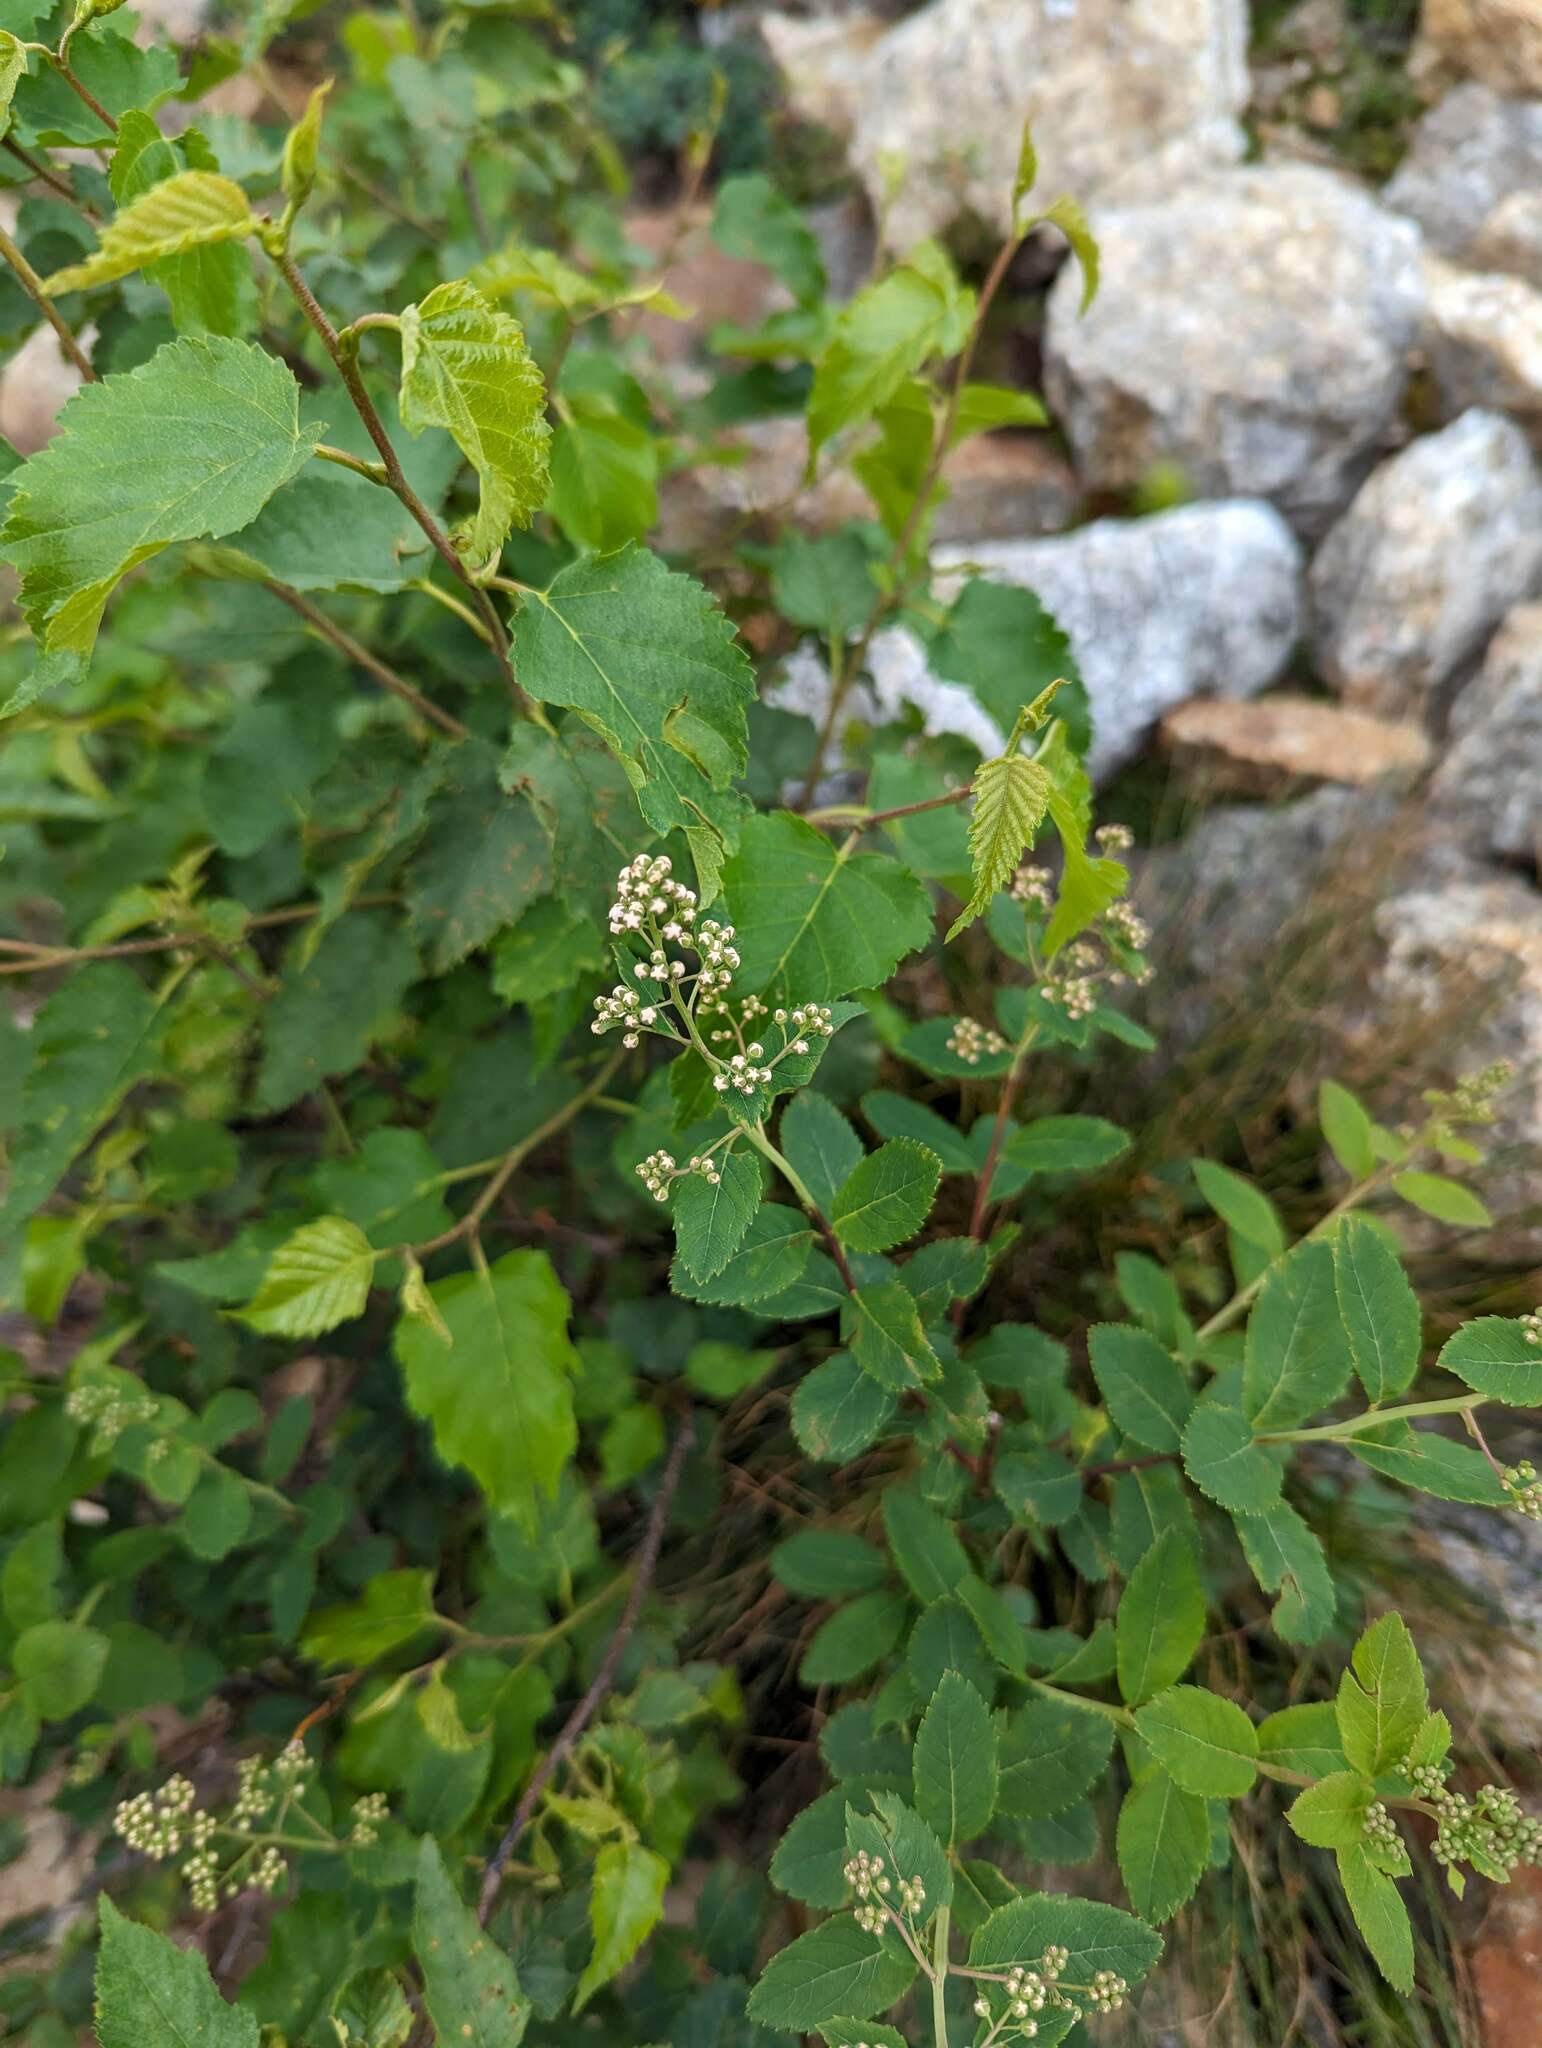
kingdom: Plantae
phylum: Tracheophyta
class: Magnoliopsida
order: Rosales
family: Rosaceae
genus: Spiraea
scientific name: Spiraea alba
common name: Pale bridewort
